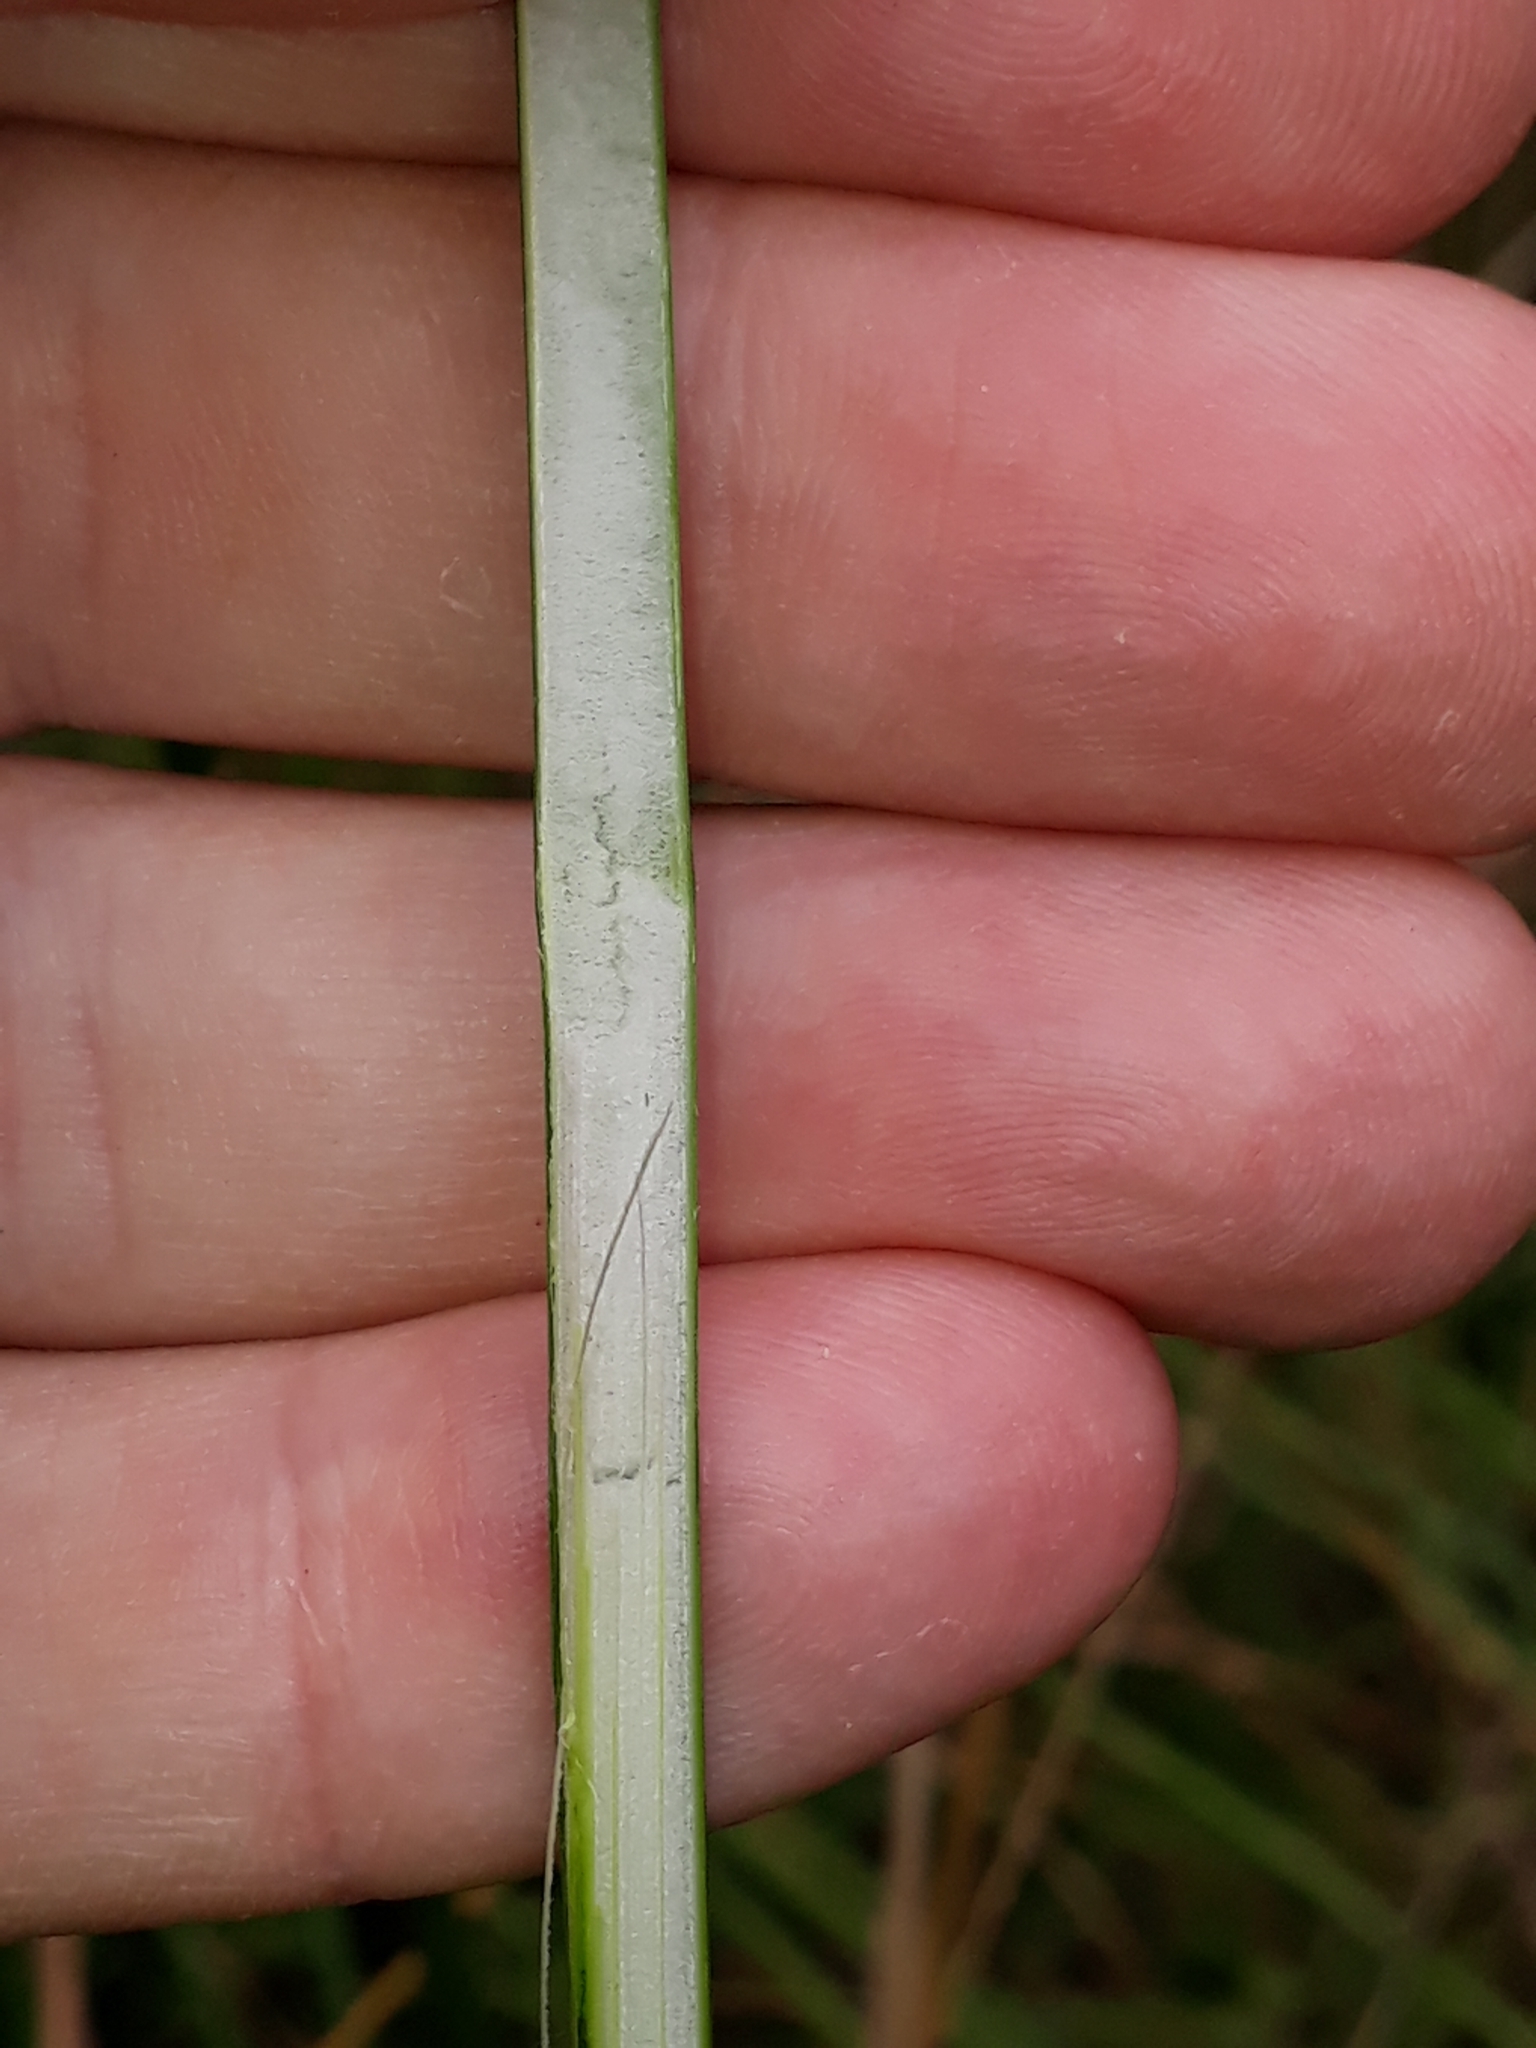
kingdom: Plantae
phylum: Tracheophyta
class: Liliopsida
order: Poales
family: Juncaceae
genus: Juncus
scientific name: Juncus pallidus
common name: Great soft-rush
